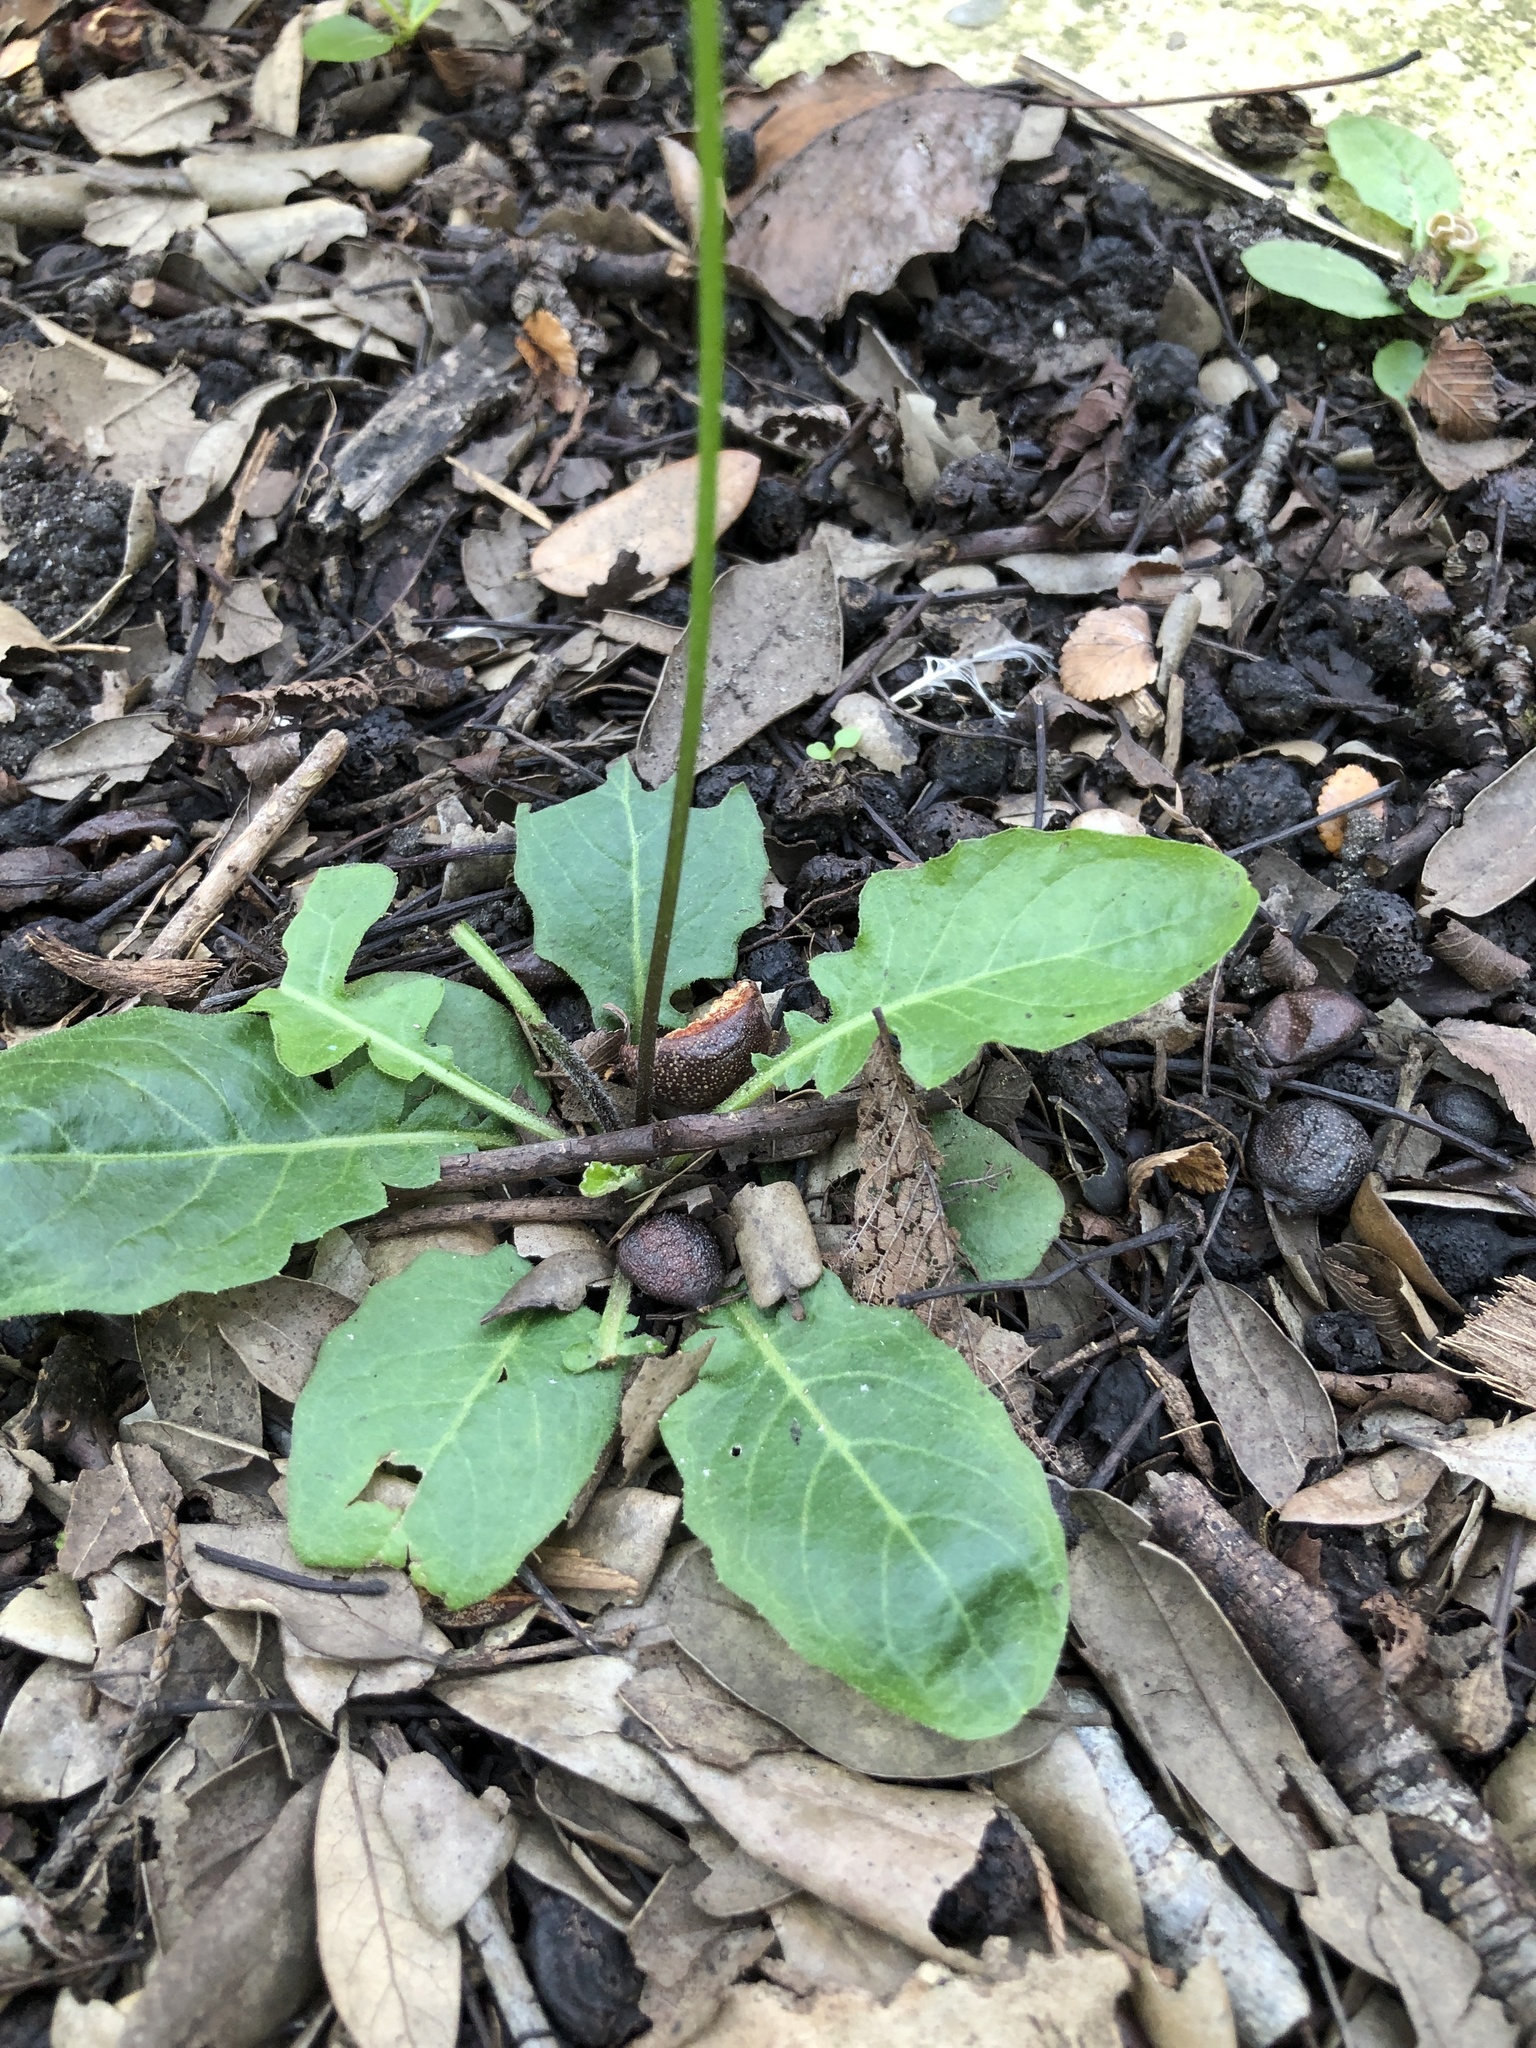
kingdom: Plantae
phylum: Tracheophyta
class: Magnoliopsida
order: Asterales
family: Asteraceae
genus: Youngia
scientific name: Youngia japonica
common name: Oriental false hawksbeard
